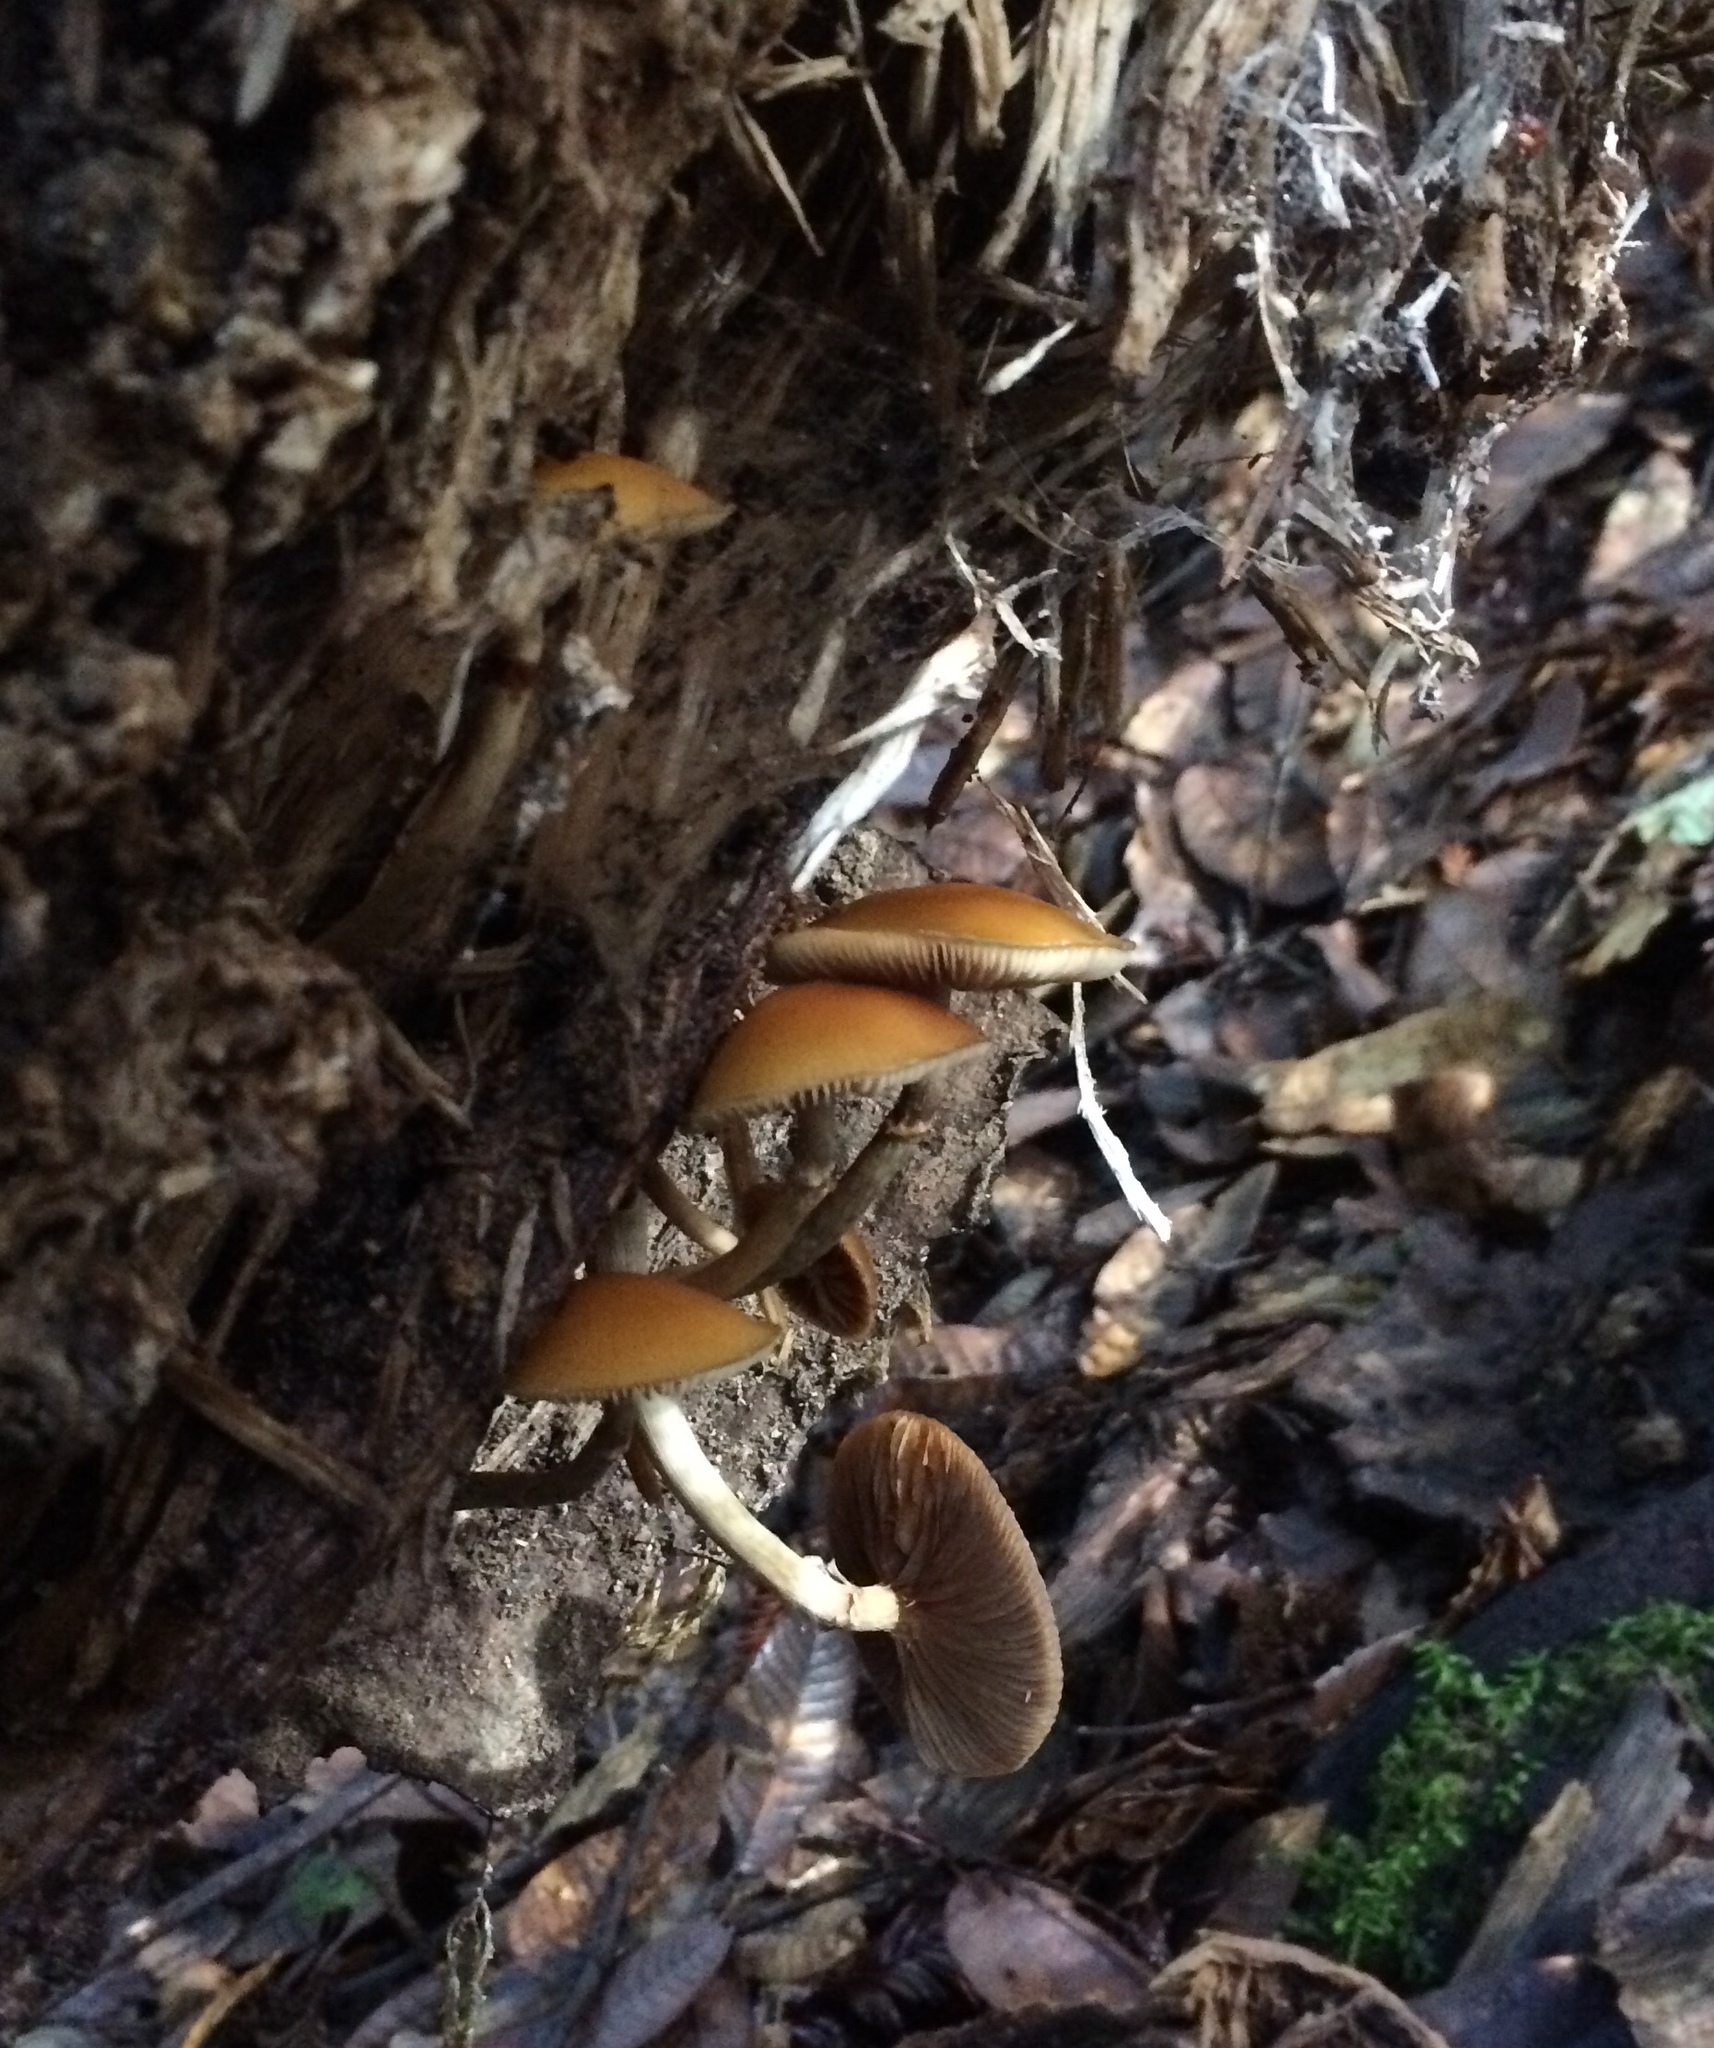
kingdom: Fungi
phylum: Basidiomycota
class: Agaricomycetes
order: Agaricales
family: Hymenogastraceae
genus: Galerina
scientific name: Galerina marginata
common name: Funeral bell
